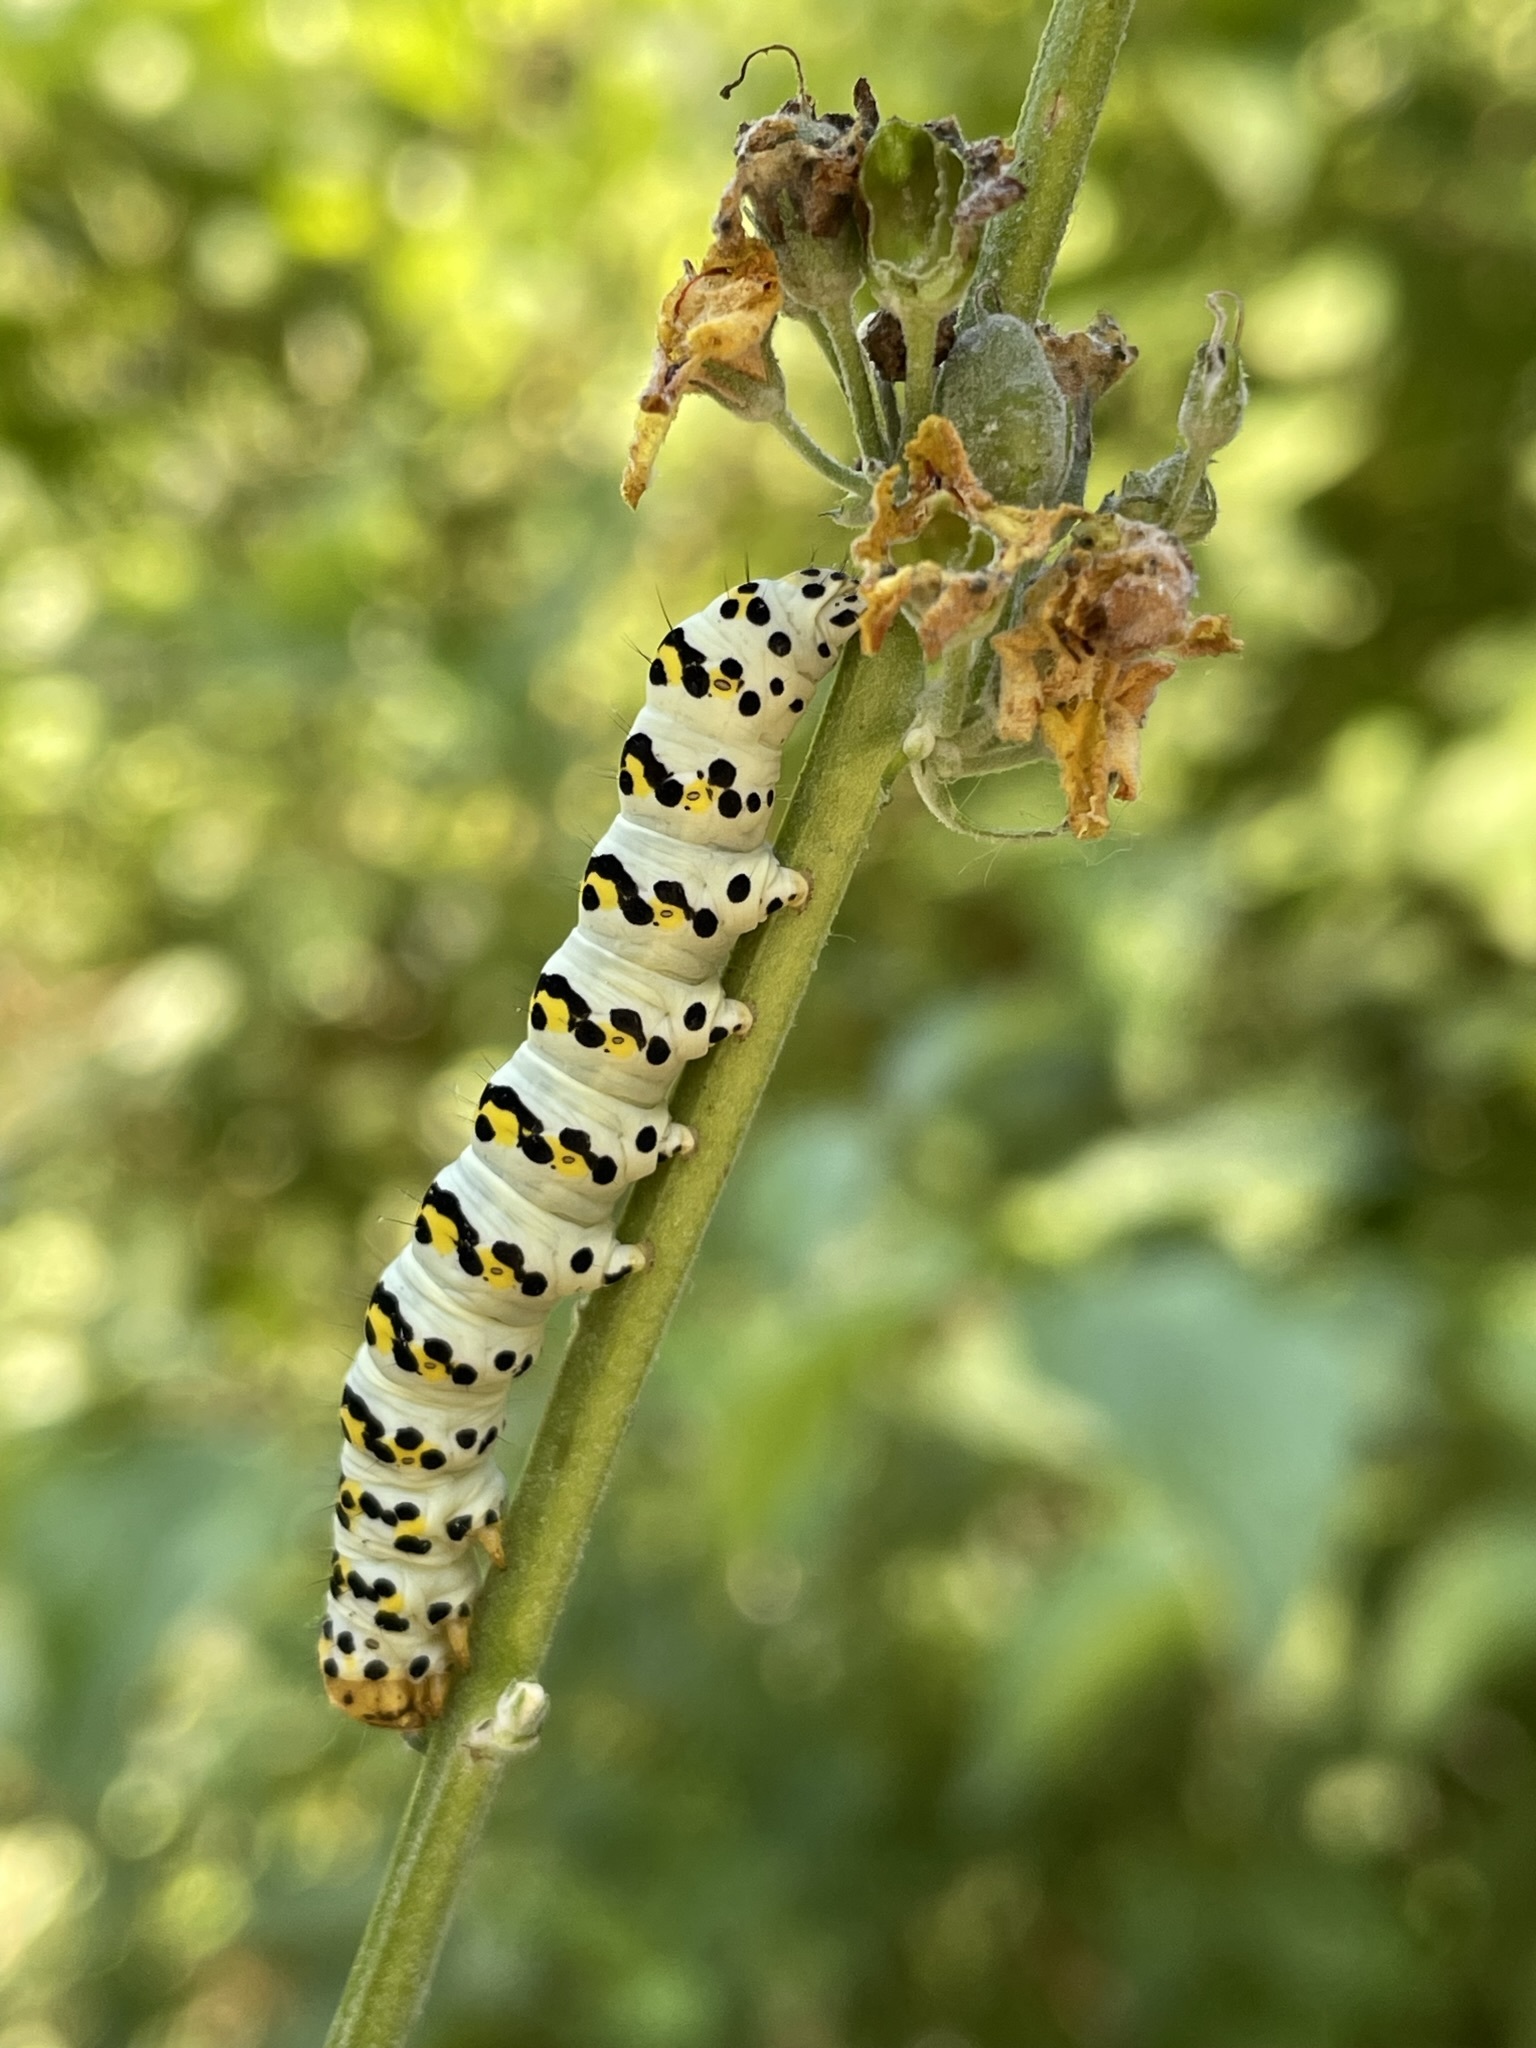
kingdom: Animalia
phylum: Arthropoda
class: Insecta
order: Lepidoptera
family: Noctuidae
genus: Cucullia
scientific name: Cucullia verbasci
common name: Mullein
